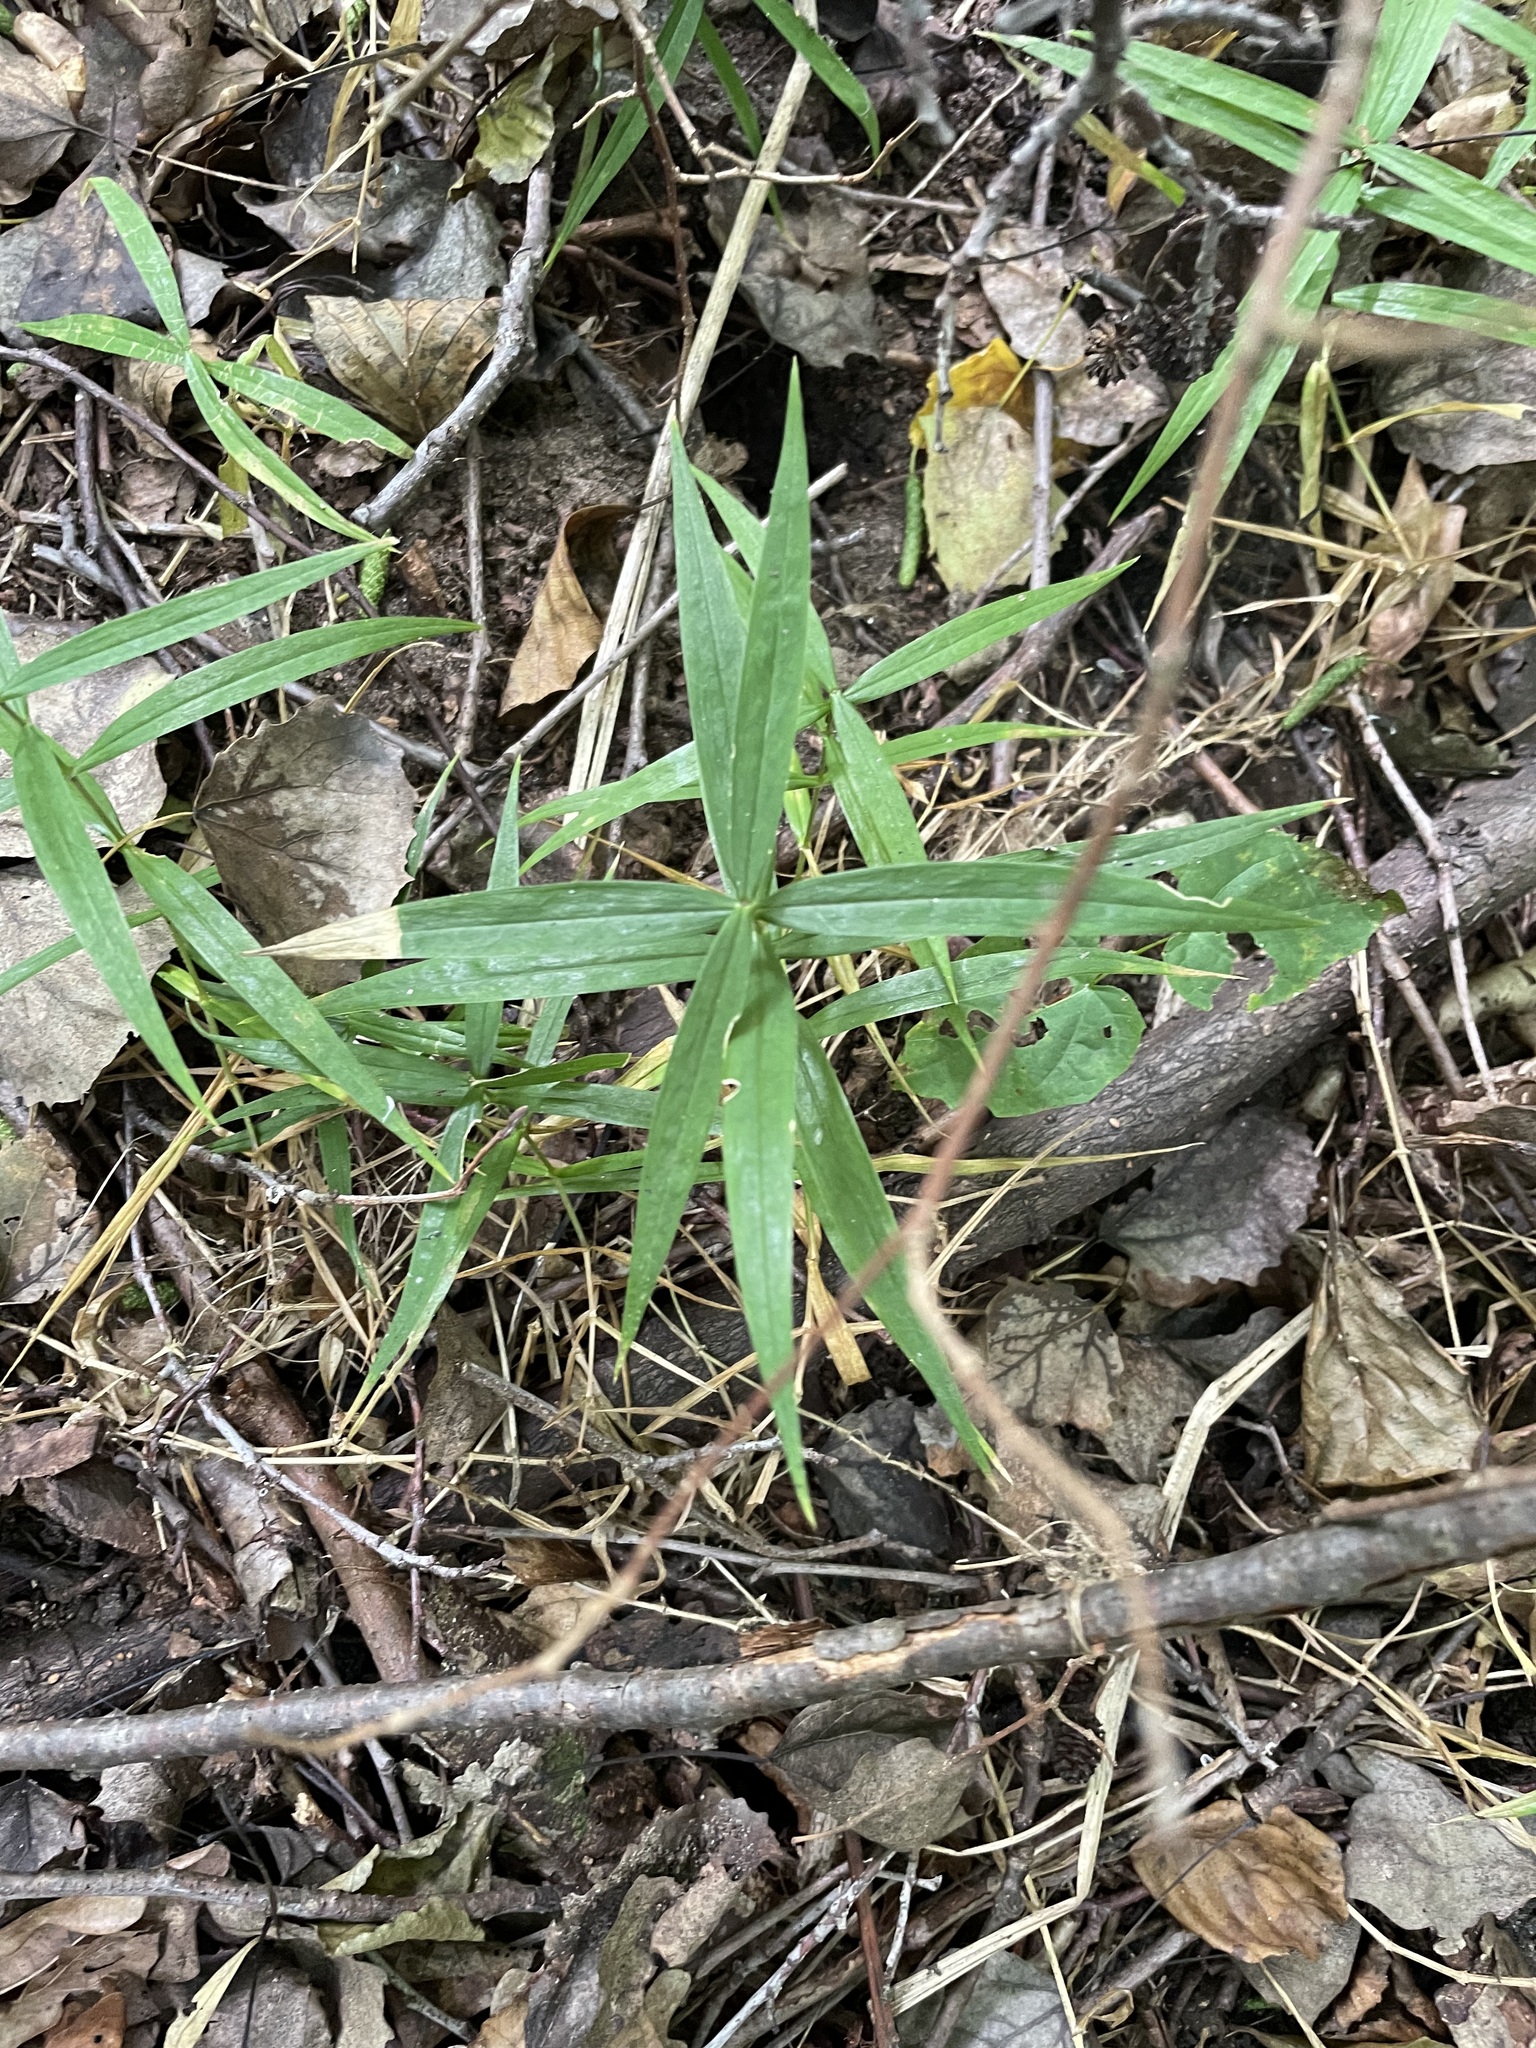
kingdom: Plantae
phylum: Tracheophyta
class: Magnoliopsida
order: Caryophyllales
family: Caryophyllaceae
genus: Rabelera
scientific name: Rabelera holostea
